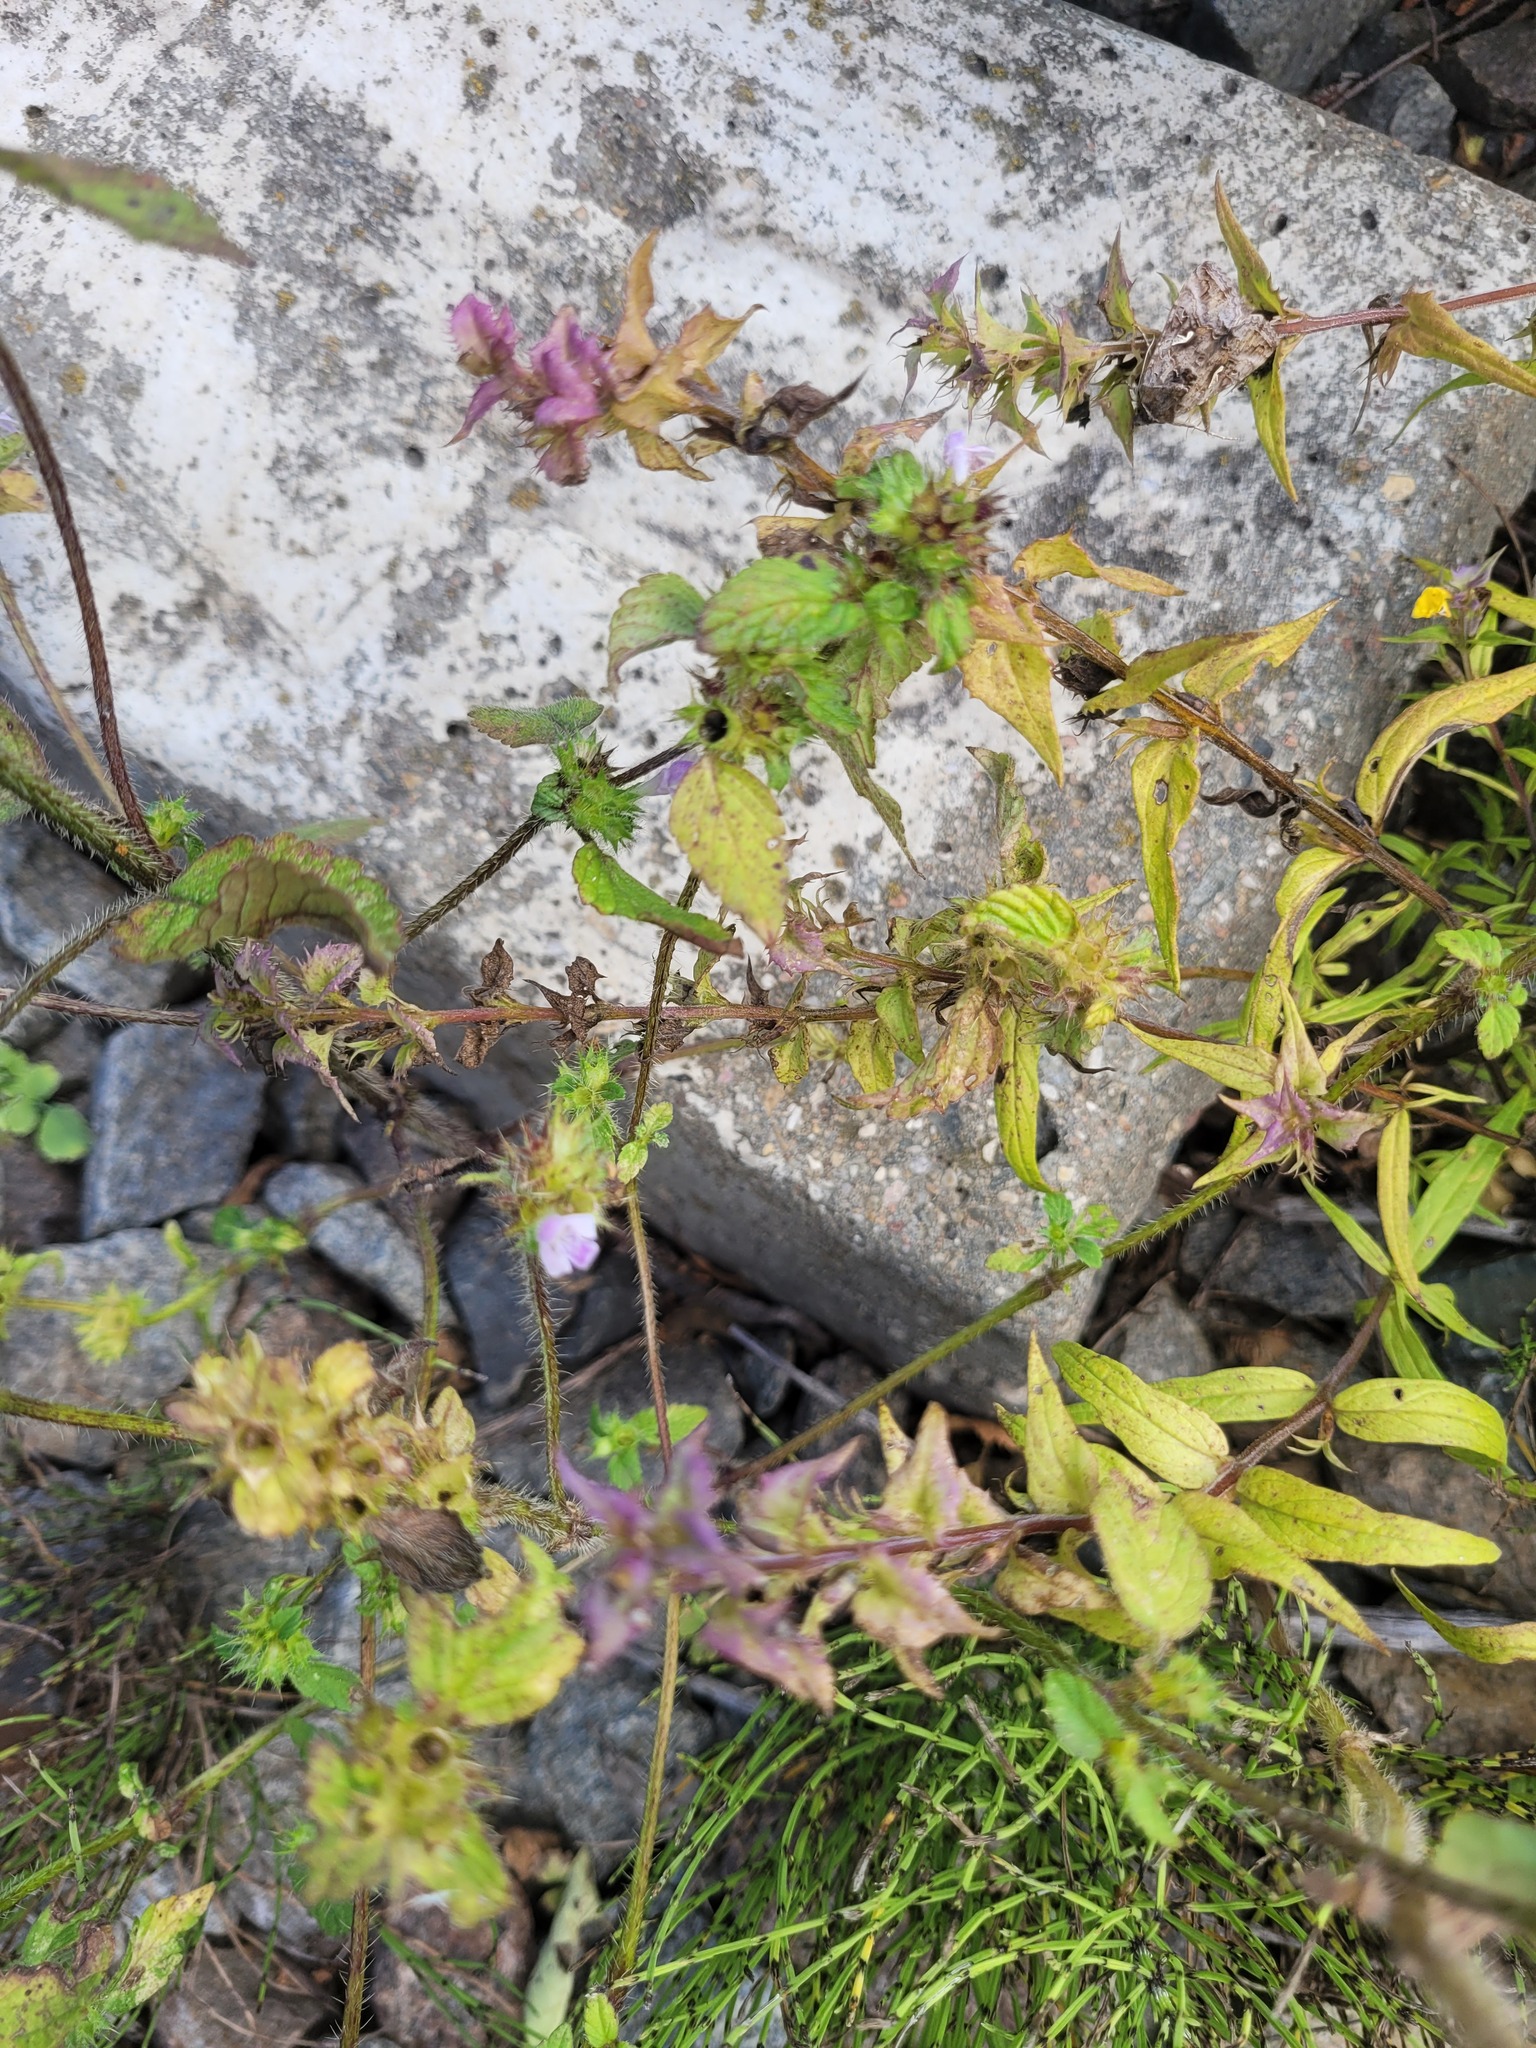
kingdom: Plantae
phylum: Tracheophyta
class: Magnoliopsida
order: Lamiales
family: Lamiaceae
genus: Galeopsis
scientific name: Galeopsis bifida
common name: Bifid hemp-nettle
